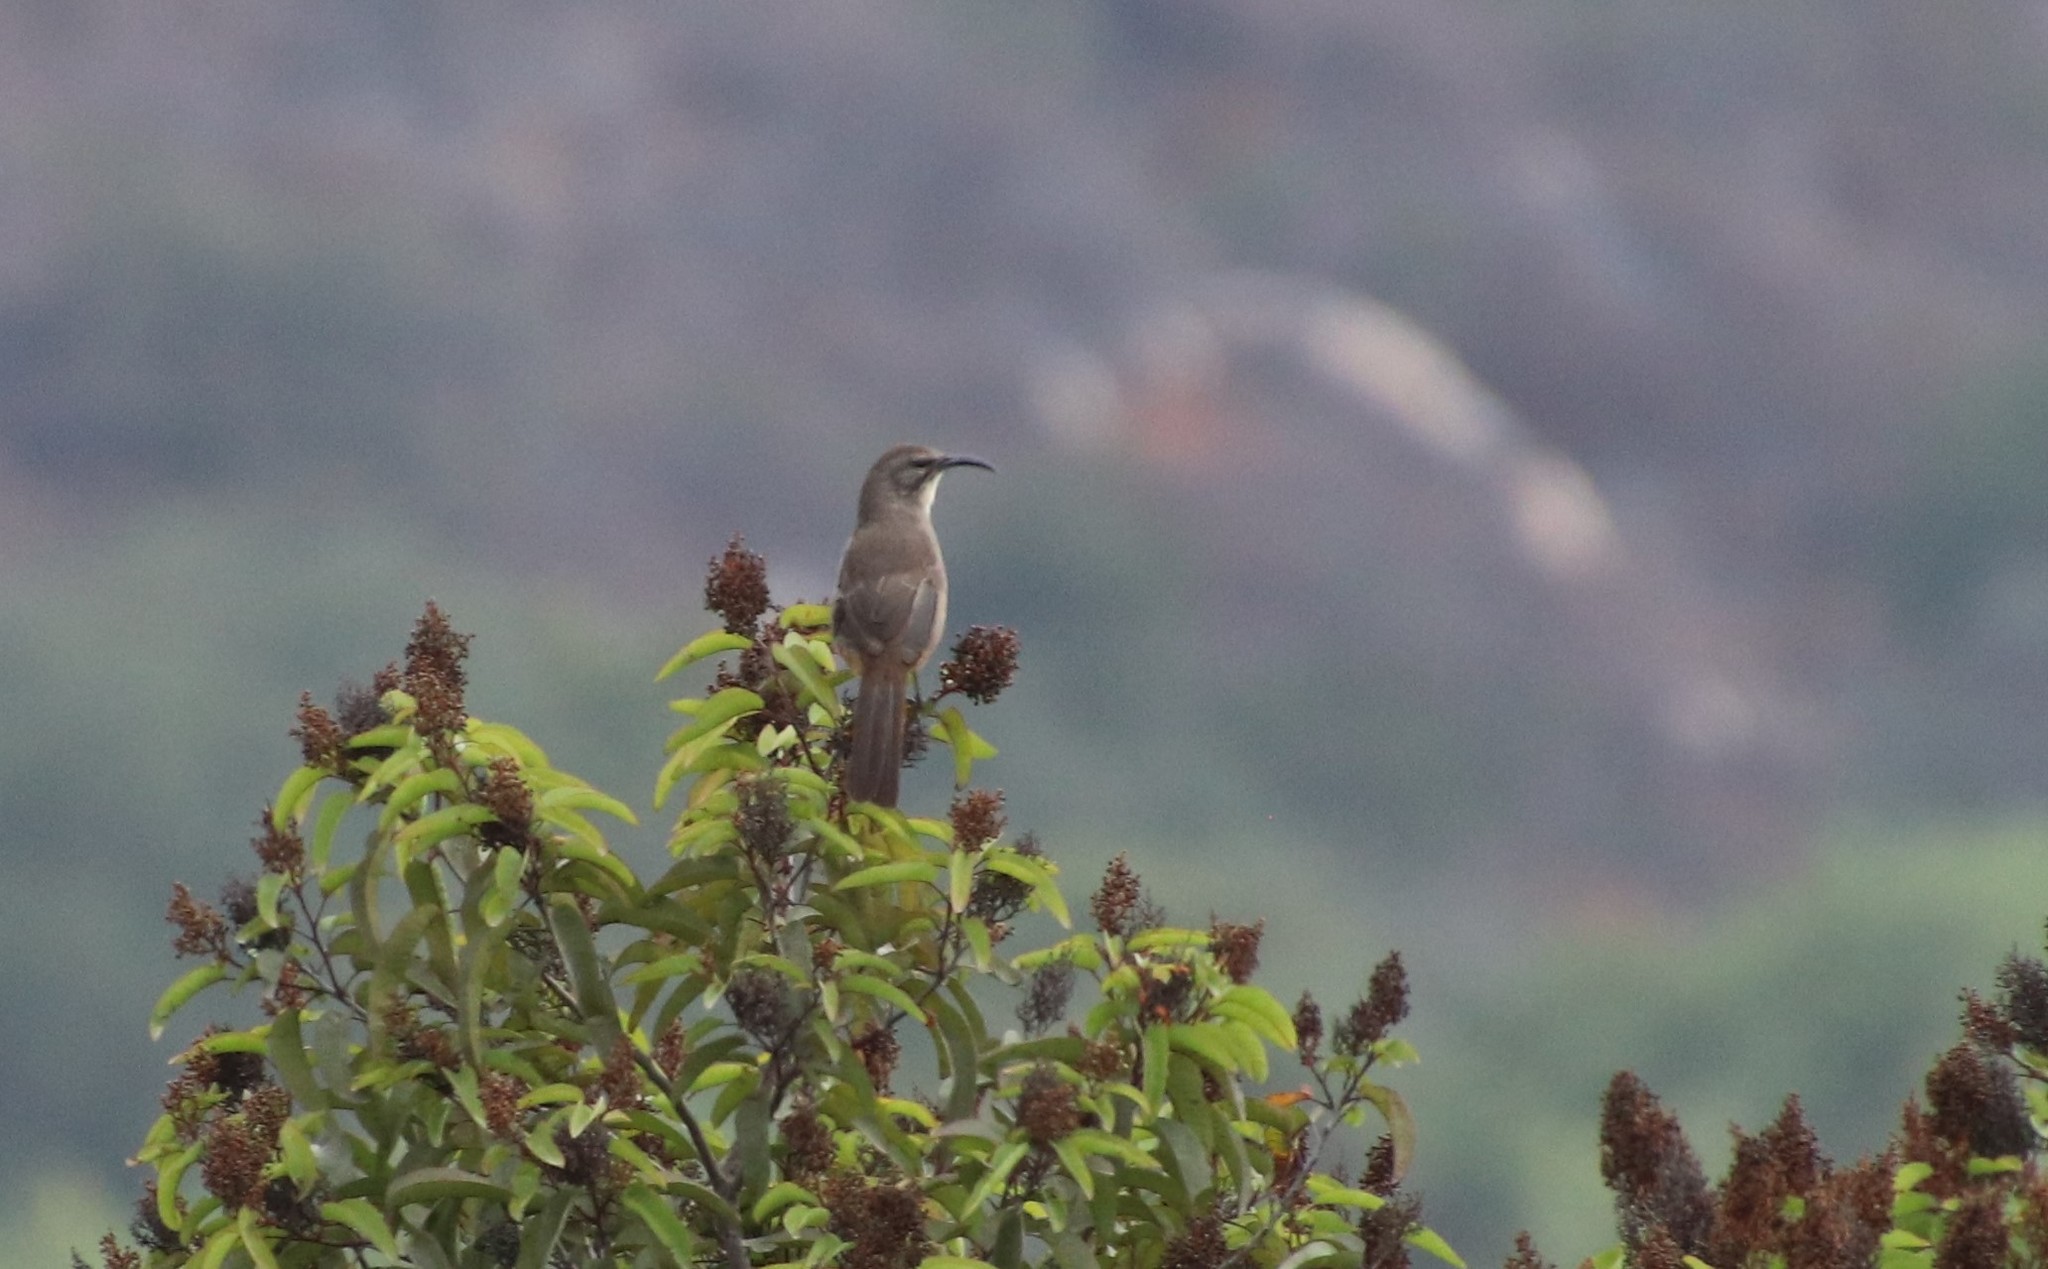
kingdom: Animalia
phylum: Chordata
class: Aves
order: Passeriformes
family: Mimidae
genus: Toxostoma
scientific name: Toxostoma redivivum
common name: California thrasher
